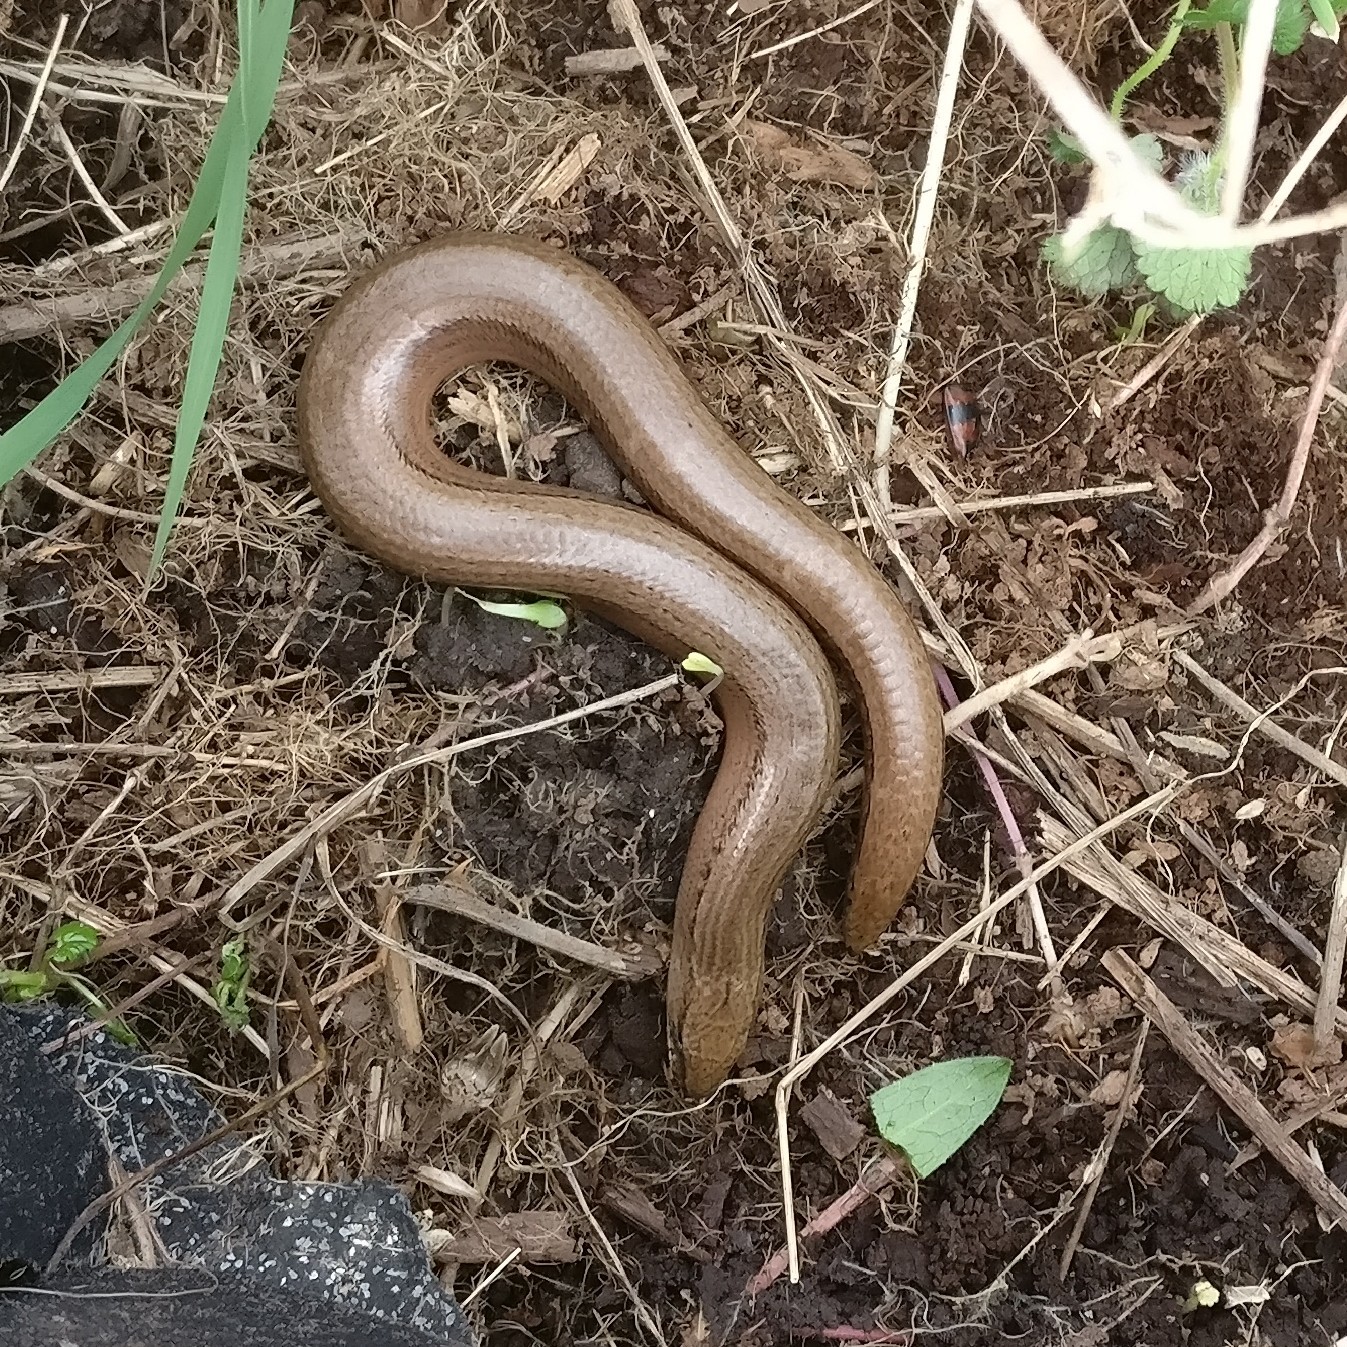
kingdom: Animalia
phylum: Chordata
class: Squamata
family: Anguidae
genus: Anguis
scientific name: Anguis fragilis
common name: Slow worm
